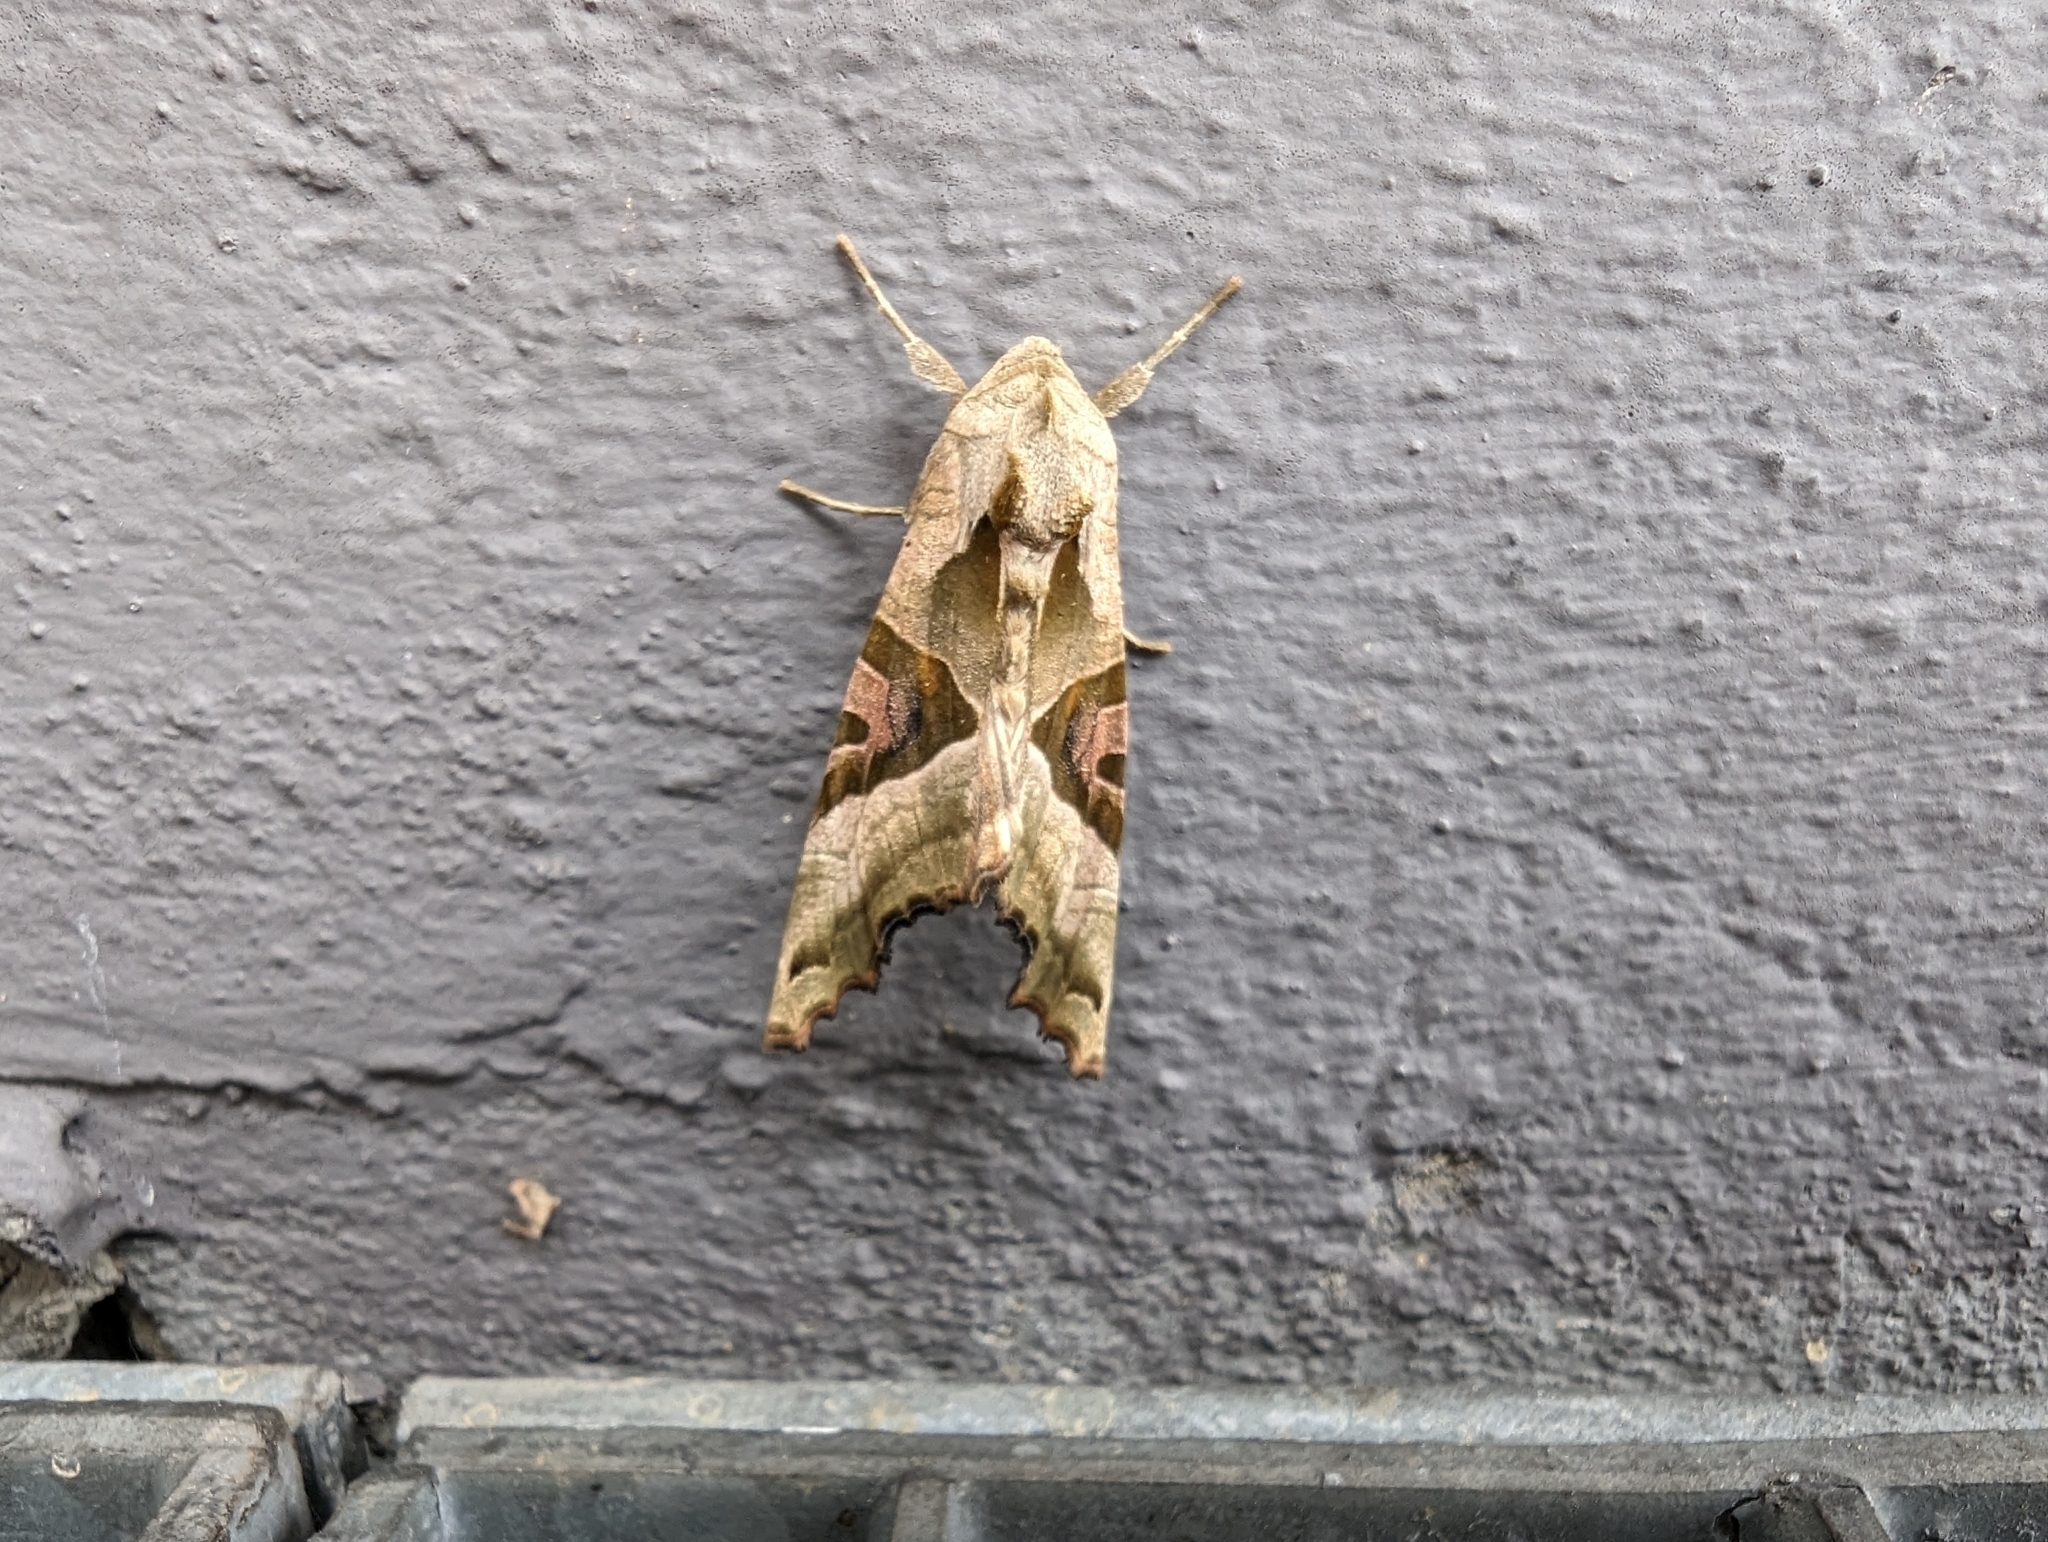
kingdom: Animalia
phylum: Arthropoda
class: Insecta
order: Lepidoptera
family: Noctuidae
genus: Phlogophora
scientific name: Phlogophora meticulosa
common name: Angle shades
